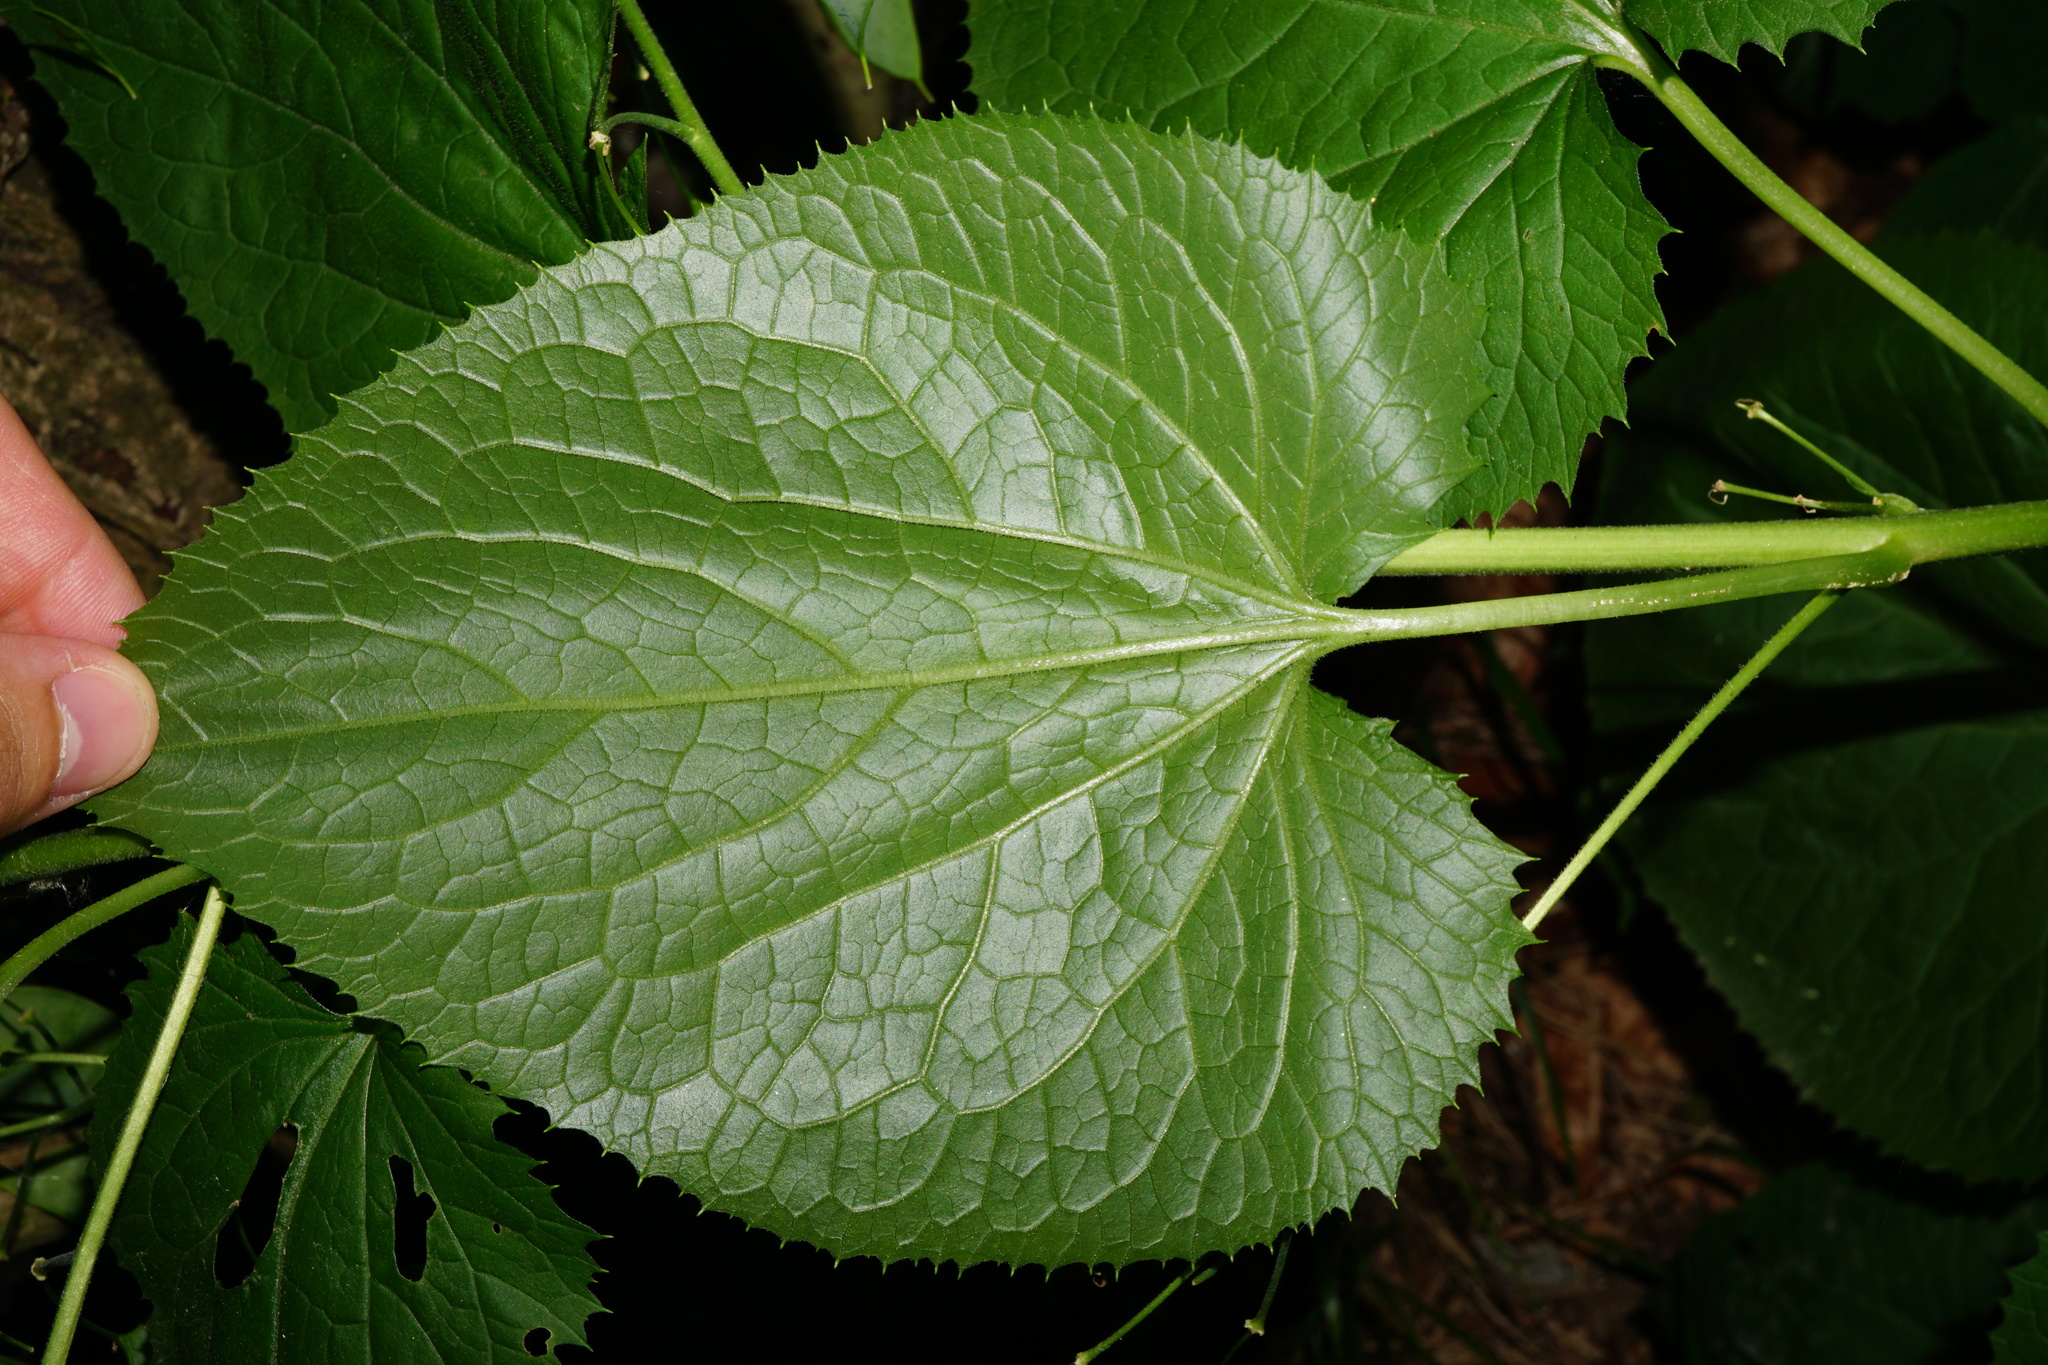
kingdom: Plantae
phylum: Tracheophyta
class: Magnoliopsida
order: Brassicales
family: Brassicaceae
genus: Lunaria
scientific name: Lunaria rediviva
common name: Perennial honesty
